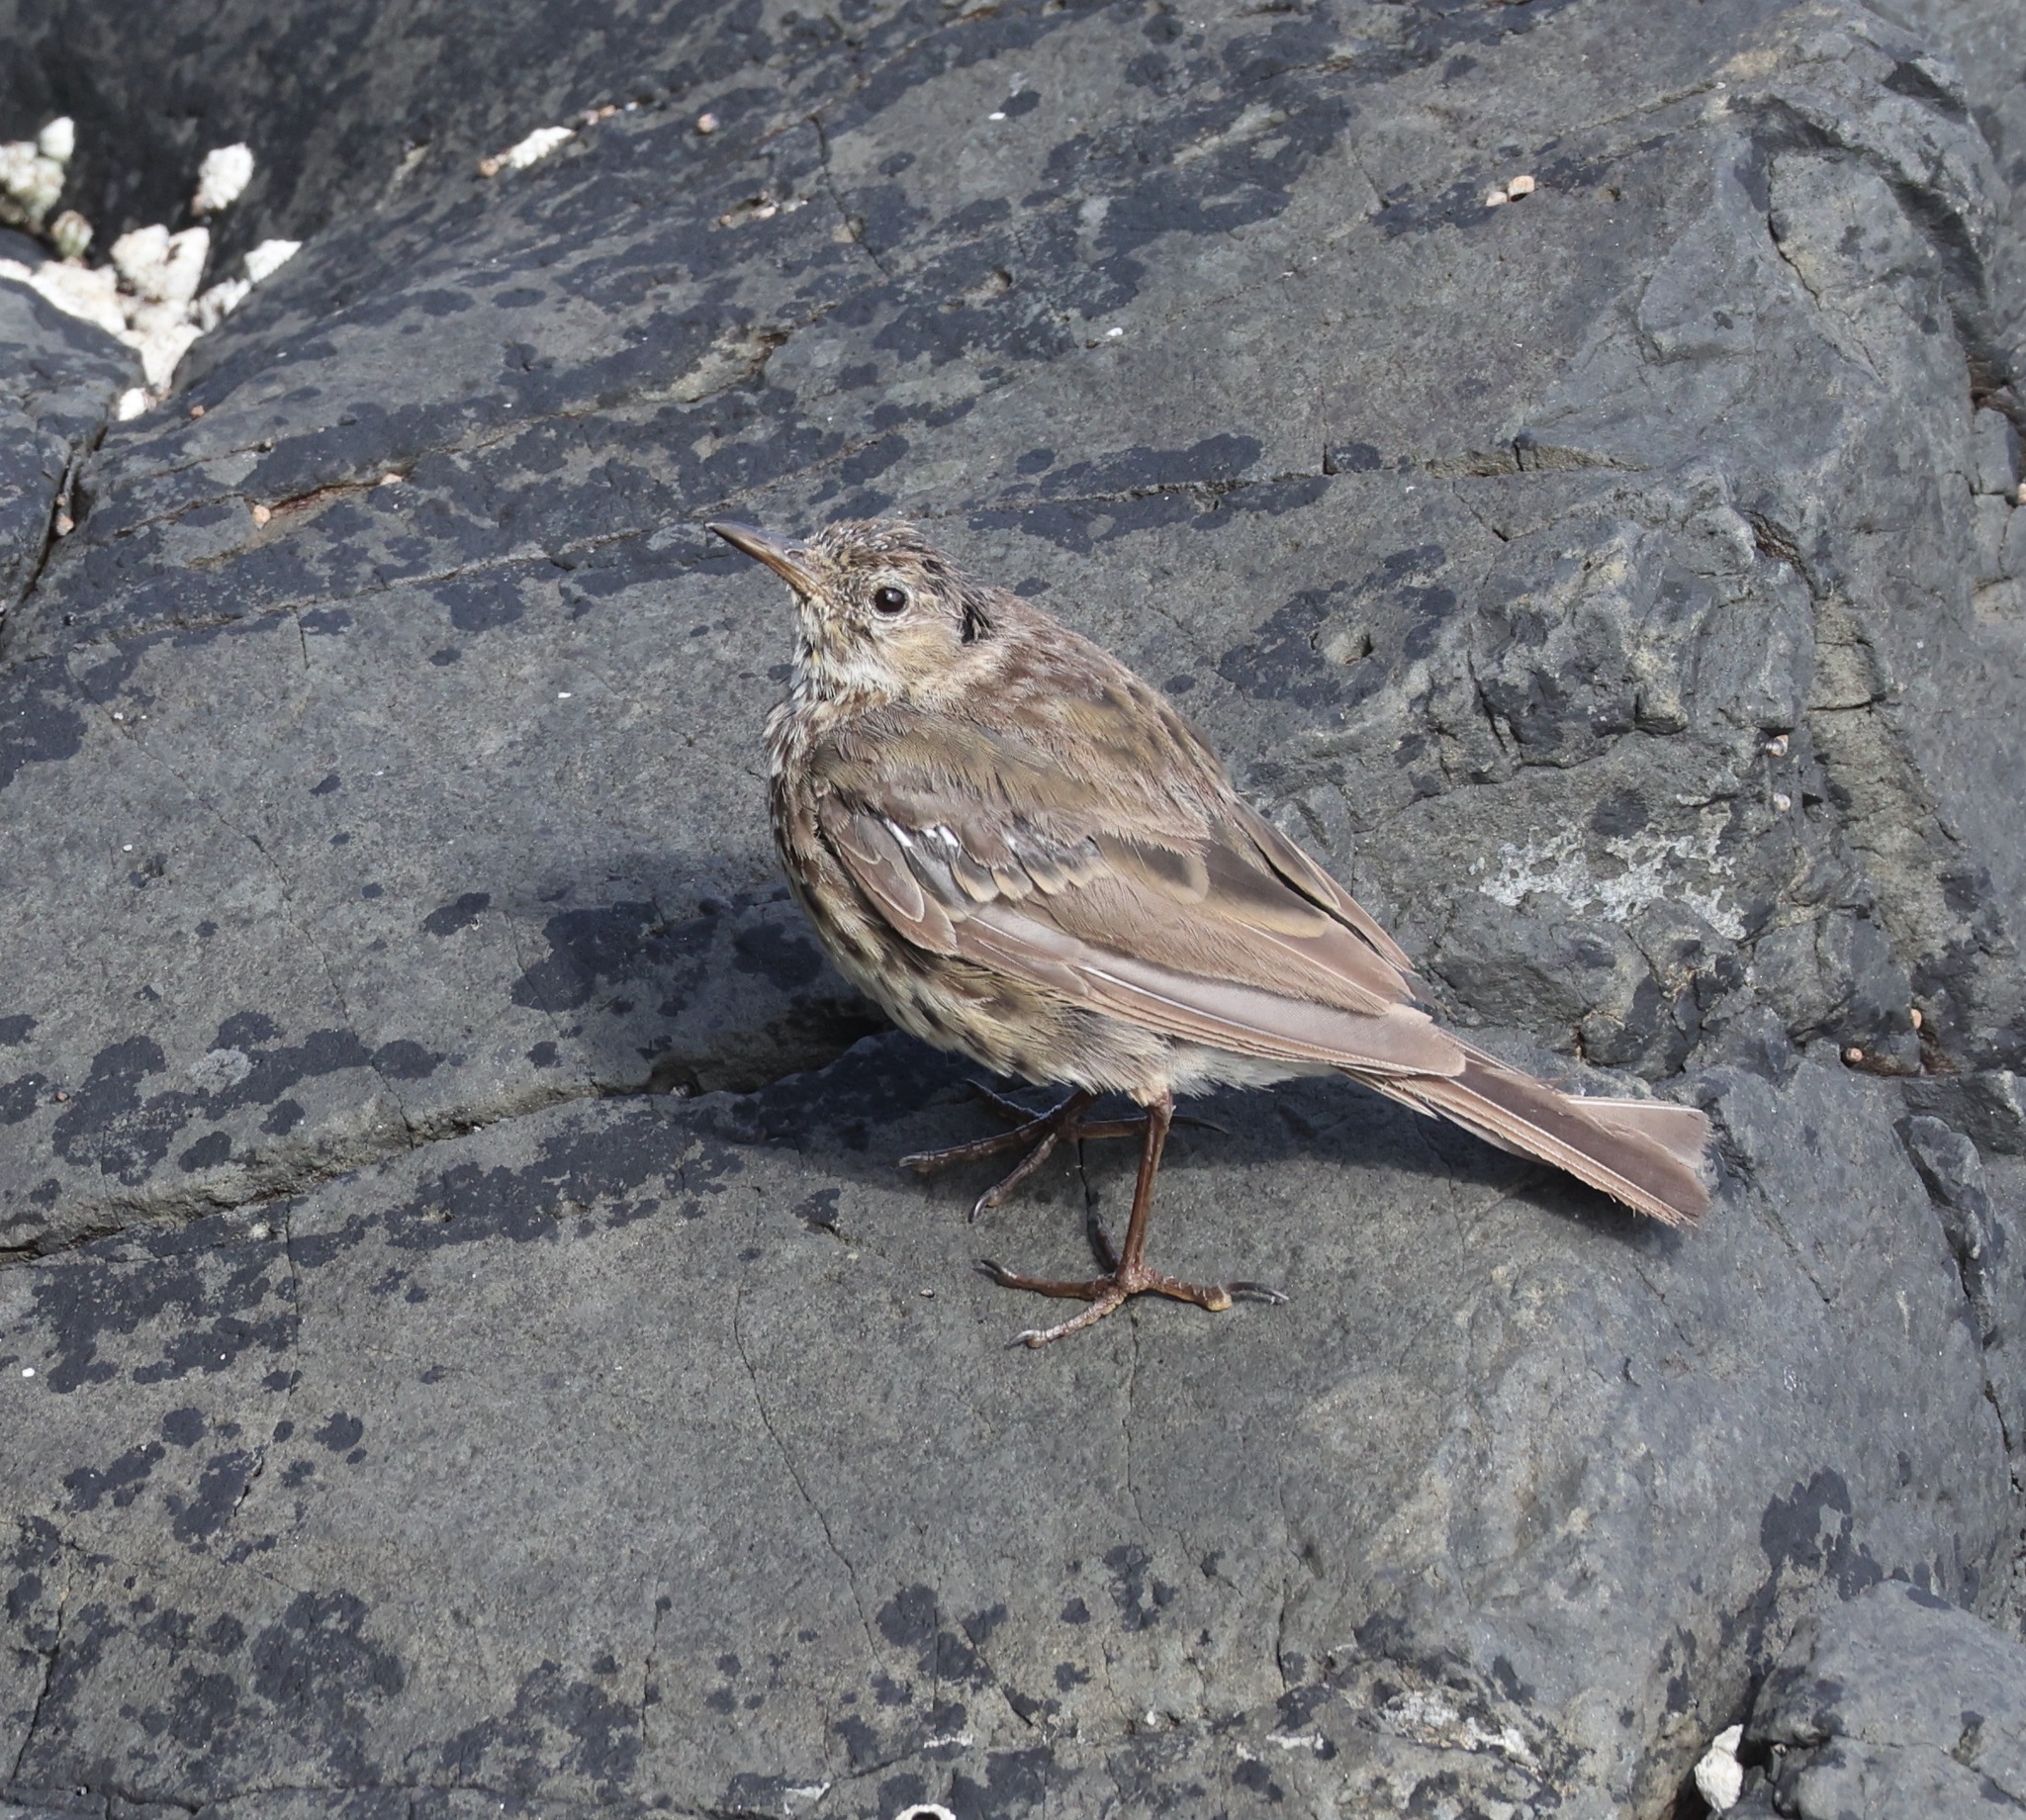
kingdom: Animalia
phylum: Chordata
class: Aves
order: Passeriformes
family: Motacillidae
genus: Anthus
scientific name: Anthus petrosus
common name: Eurasian rock pipit
